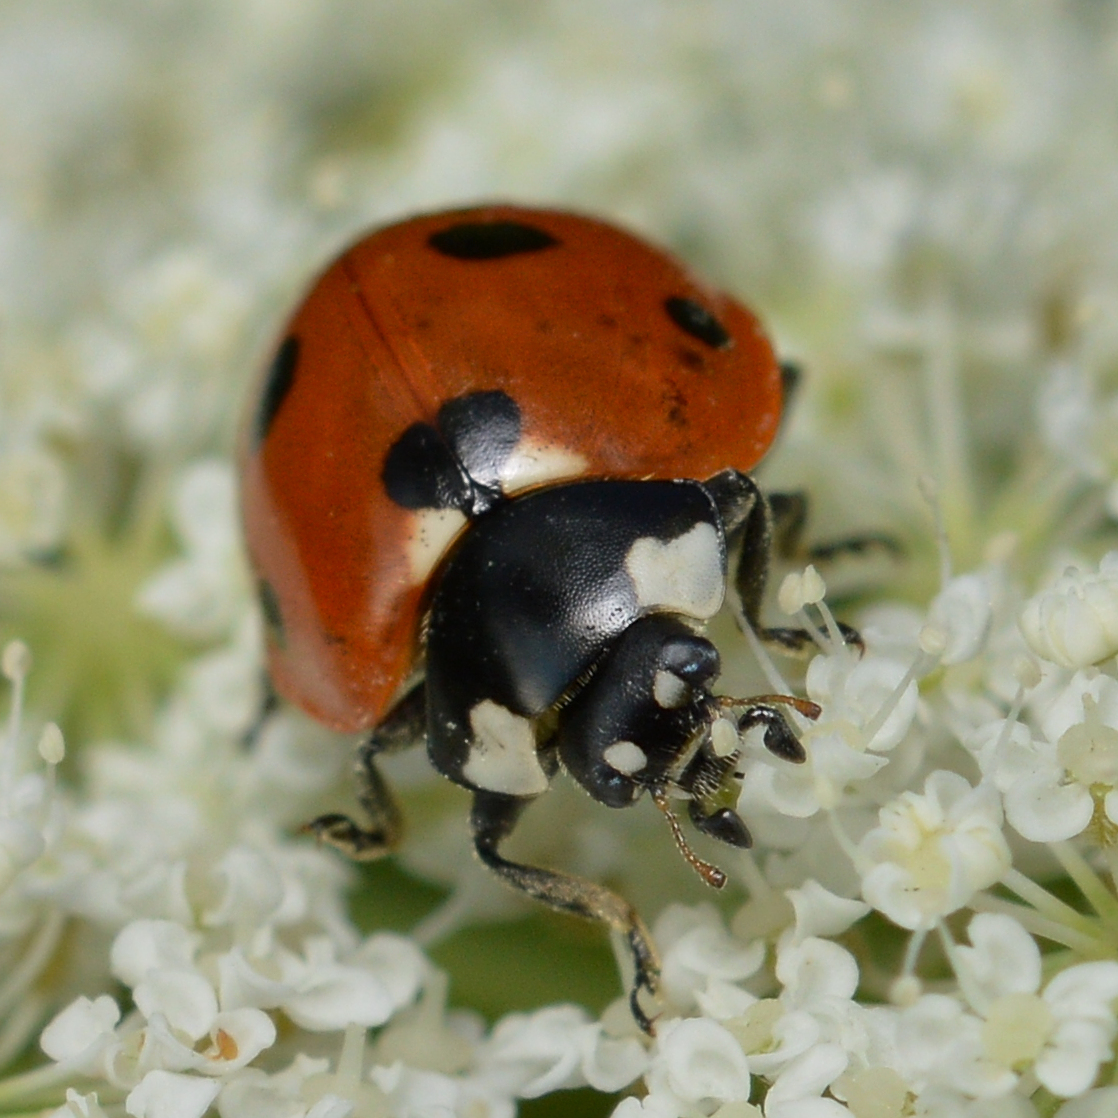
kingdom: Animalia
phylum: Arthropoda
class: Insecta
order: Coleoptera
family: Coccinellidae
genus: Coccinella
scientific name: Coccinella septempunctata
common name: Sevenspotted lady beetle
